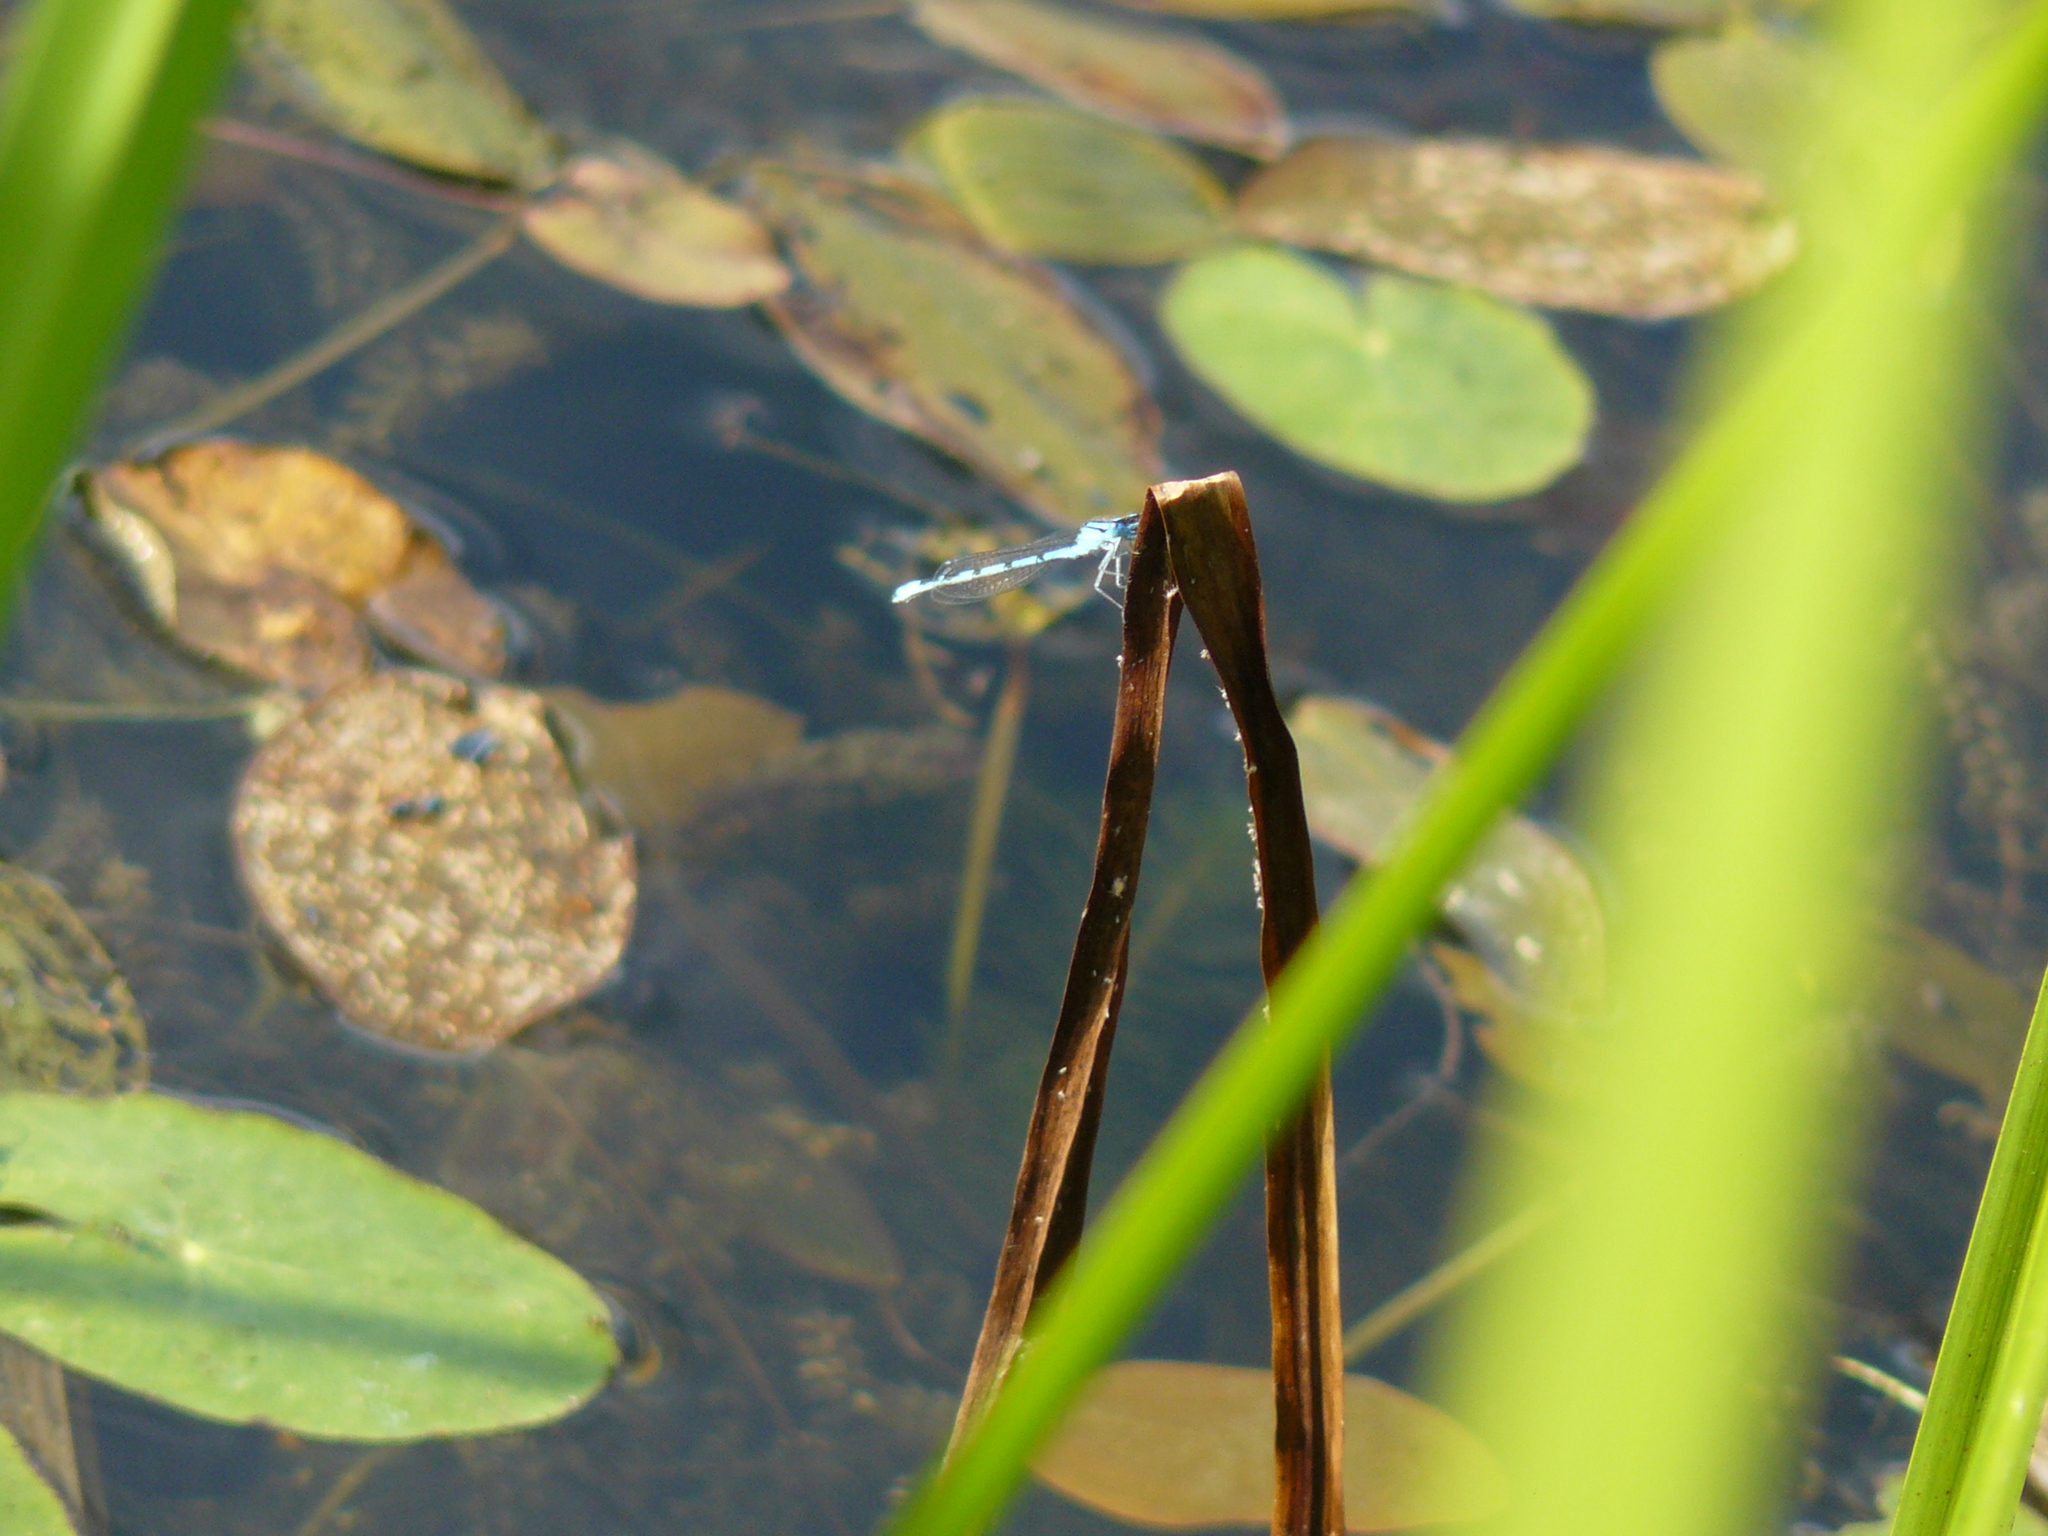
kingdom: Animalia
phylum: Arthropoda
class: Insecta
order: Odonata
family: Coenagrionidae
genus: Enallagma
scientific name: Enallagma cyathigerum
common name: Common blue damselfly
